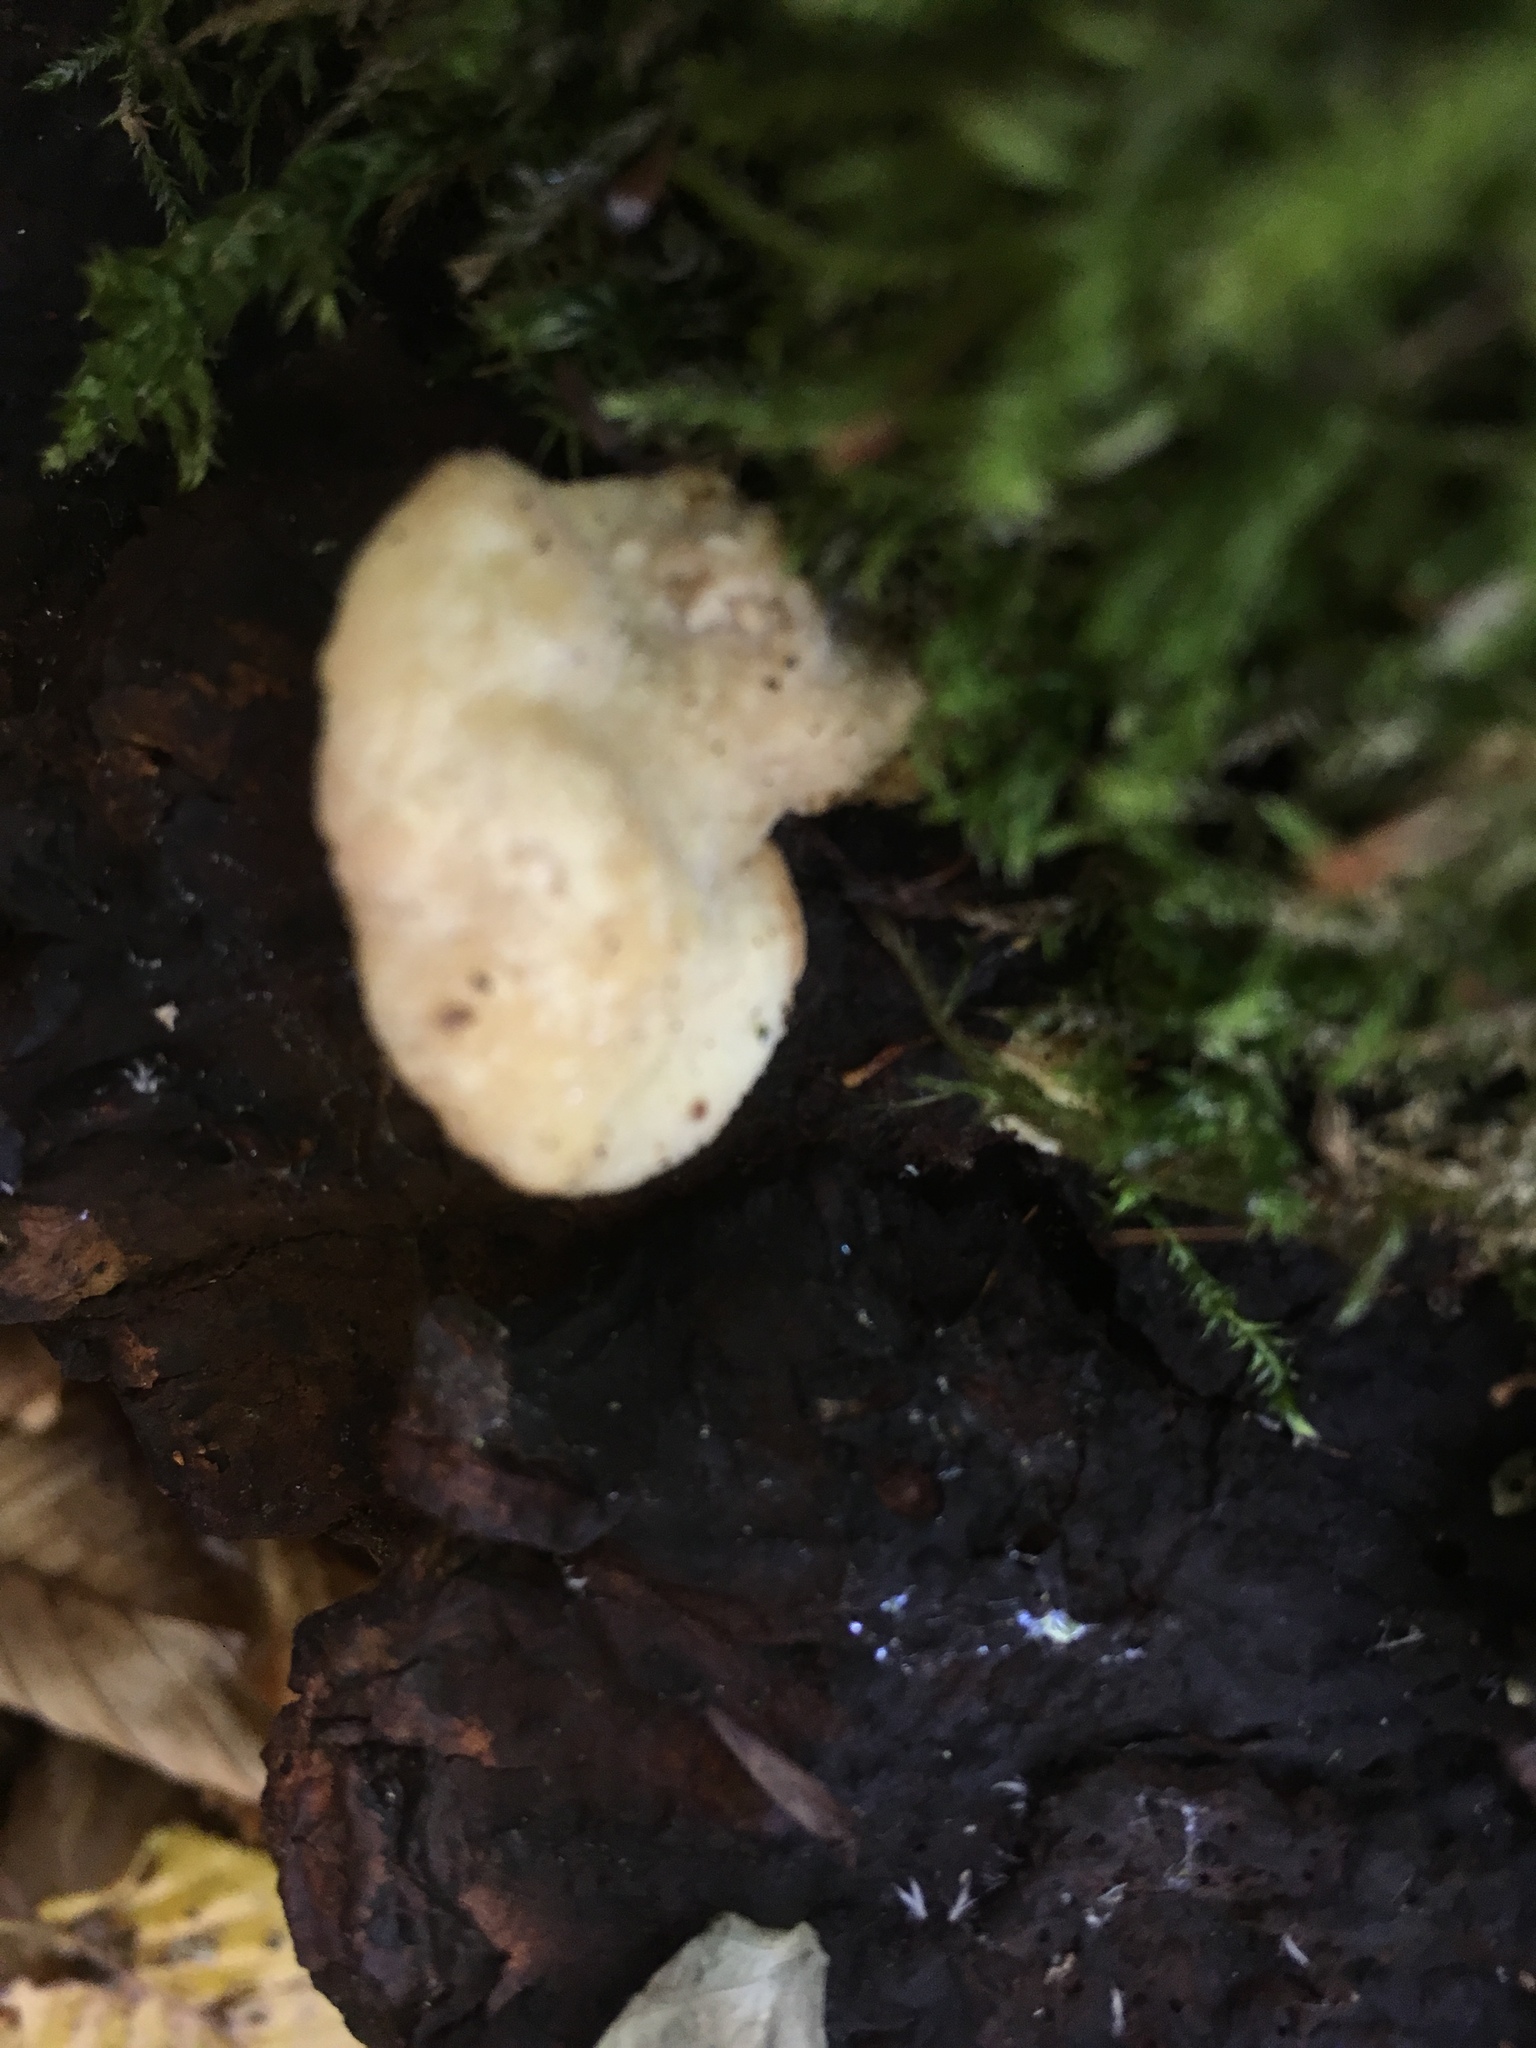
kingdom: Fungi
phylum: Basidiomycota
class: Agaricomycetes
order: Polyporales
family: Steccherinaceae
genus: Antrodiella
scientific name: Antrodiella serpula
